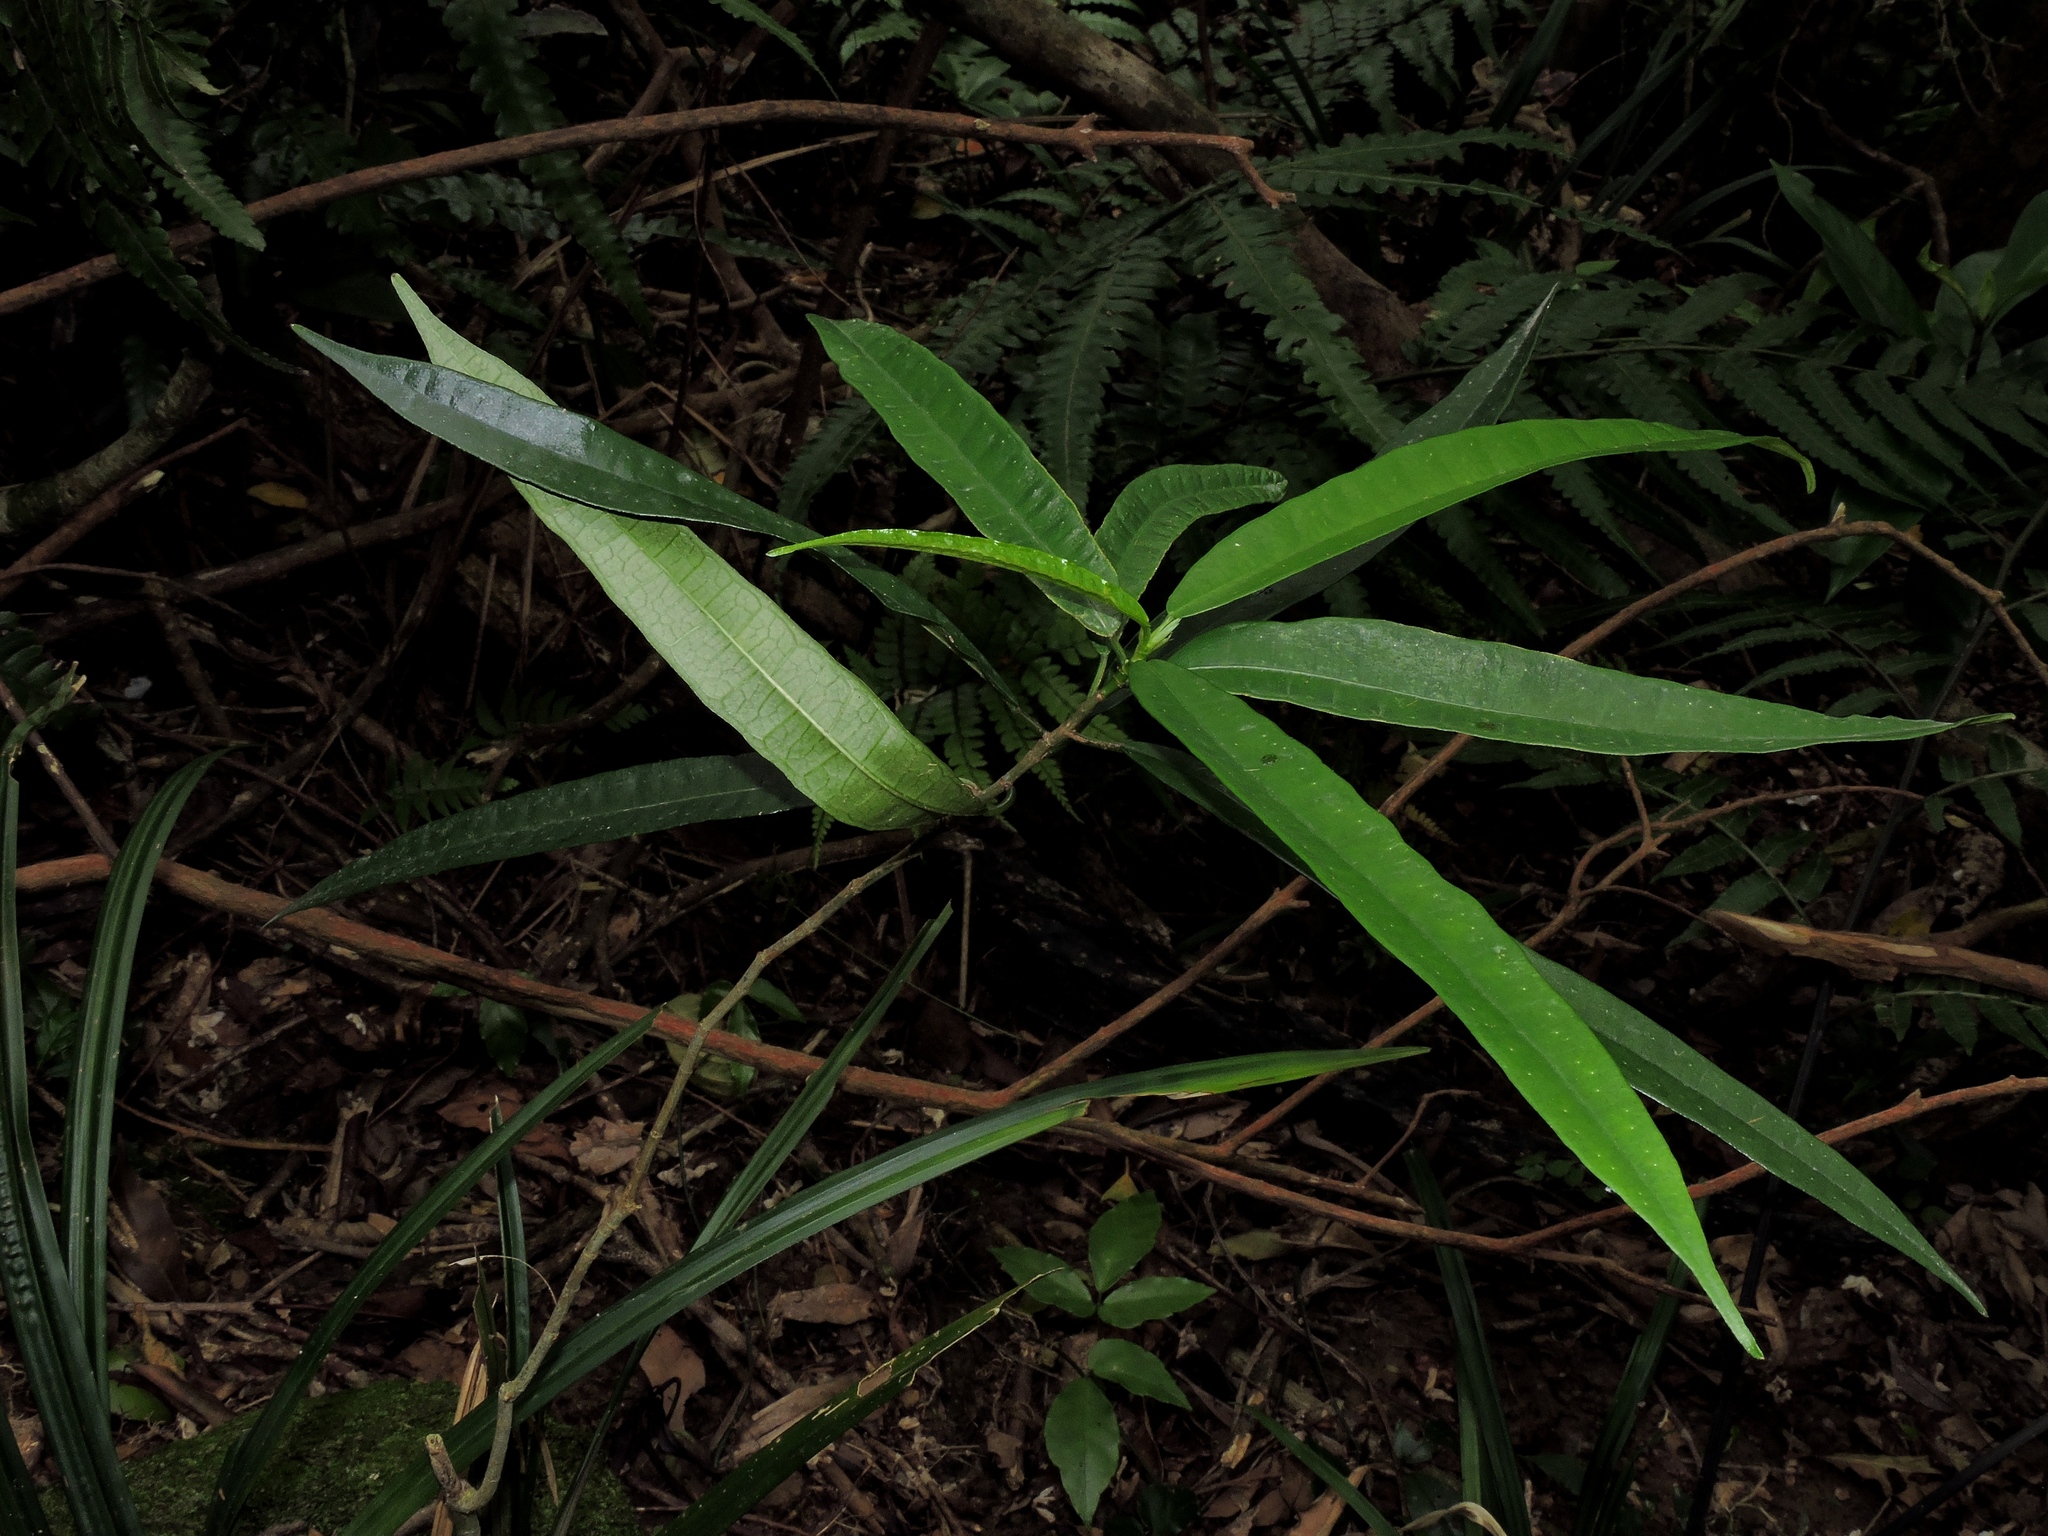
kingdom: Plantae
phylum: Tracheophyta
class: Magnoliopsida
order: Rosales
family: Moraceae
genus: Ficus
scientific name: Ficus formosana
